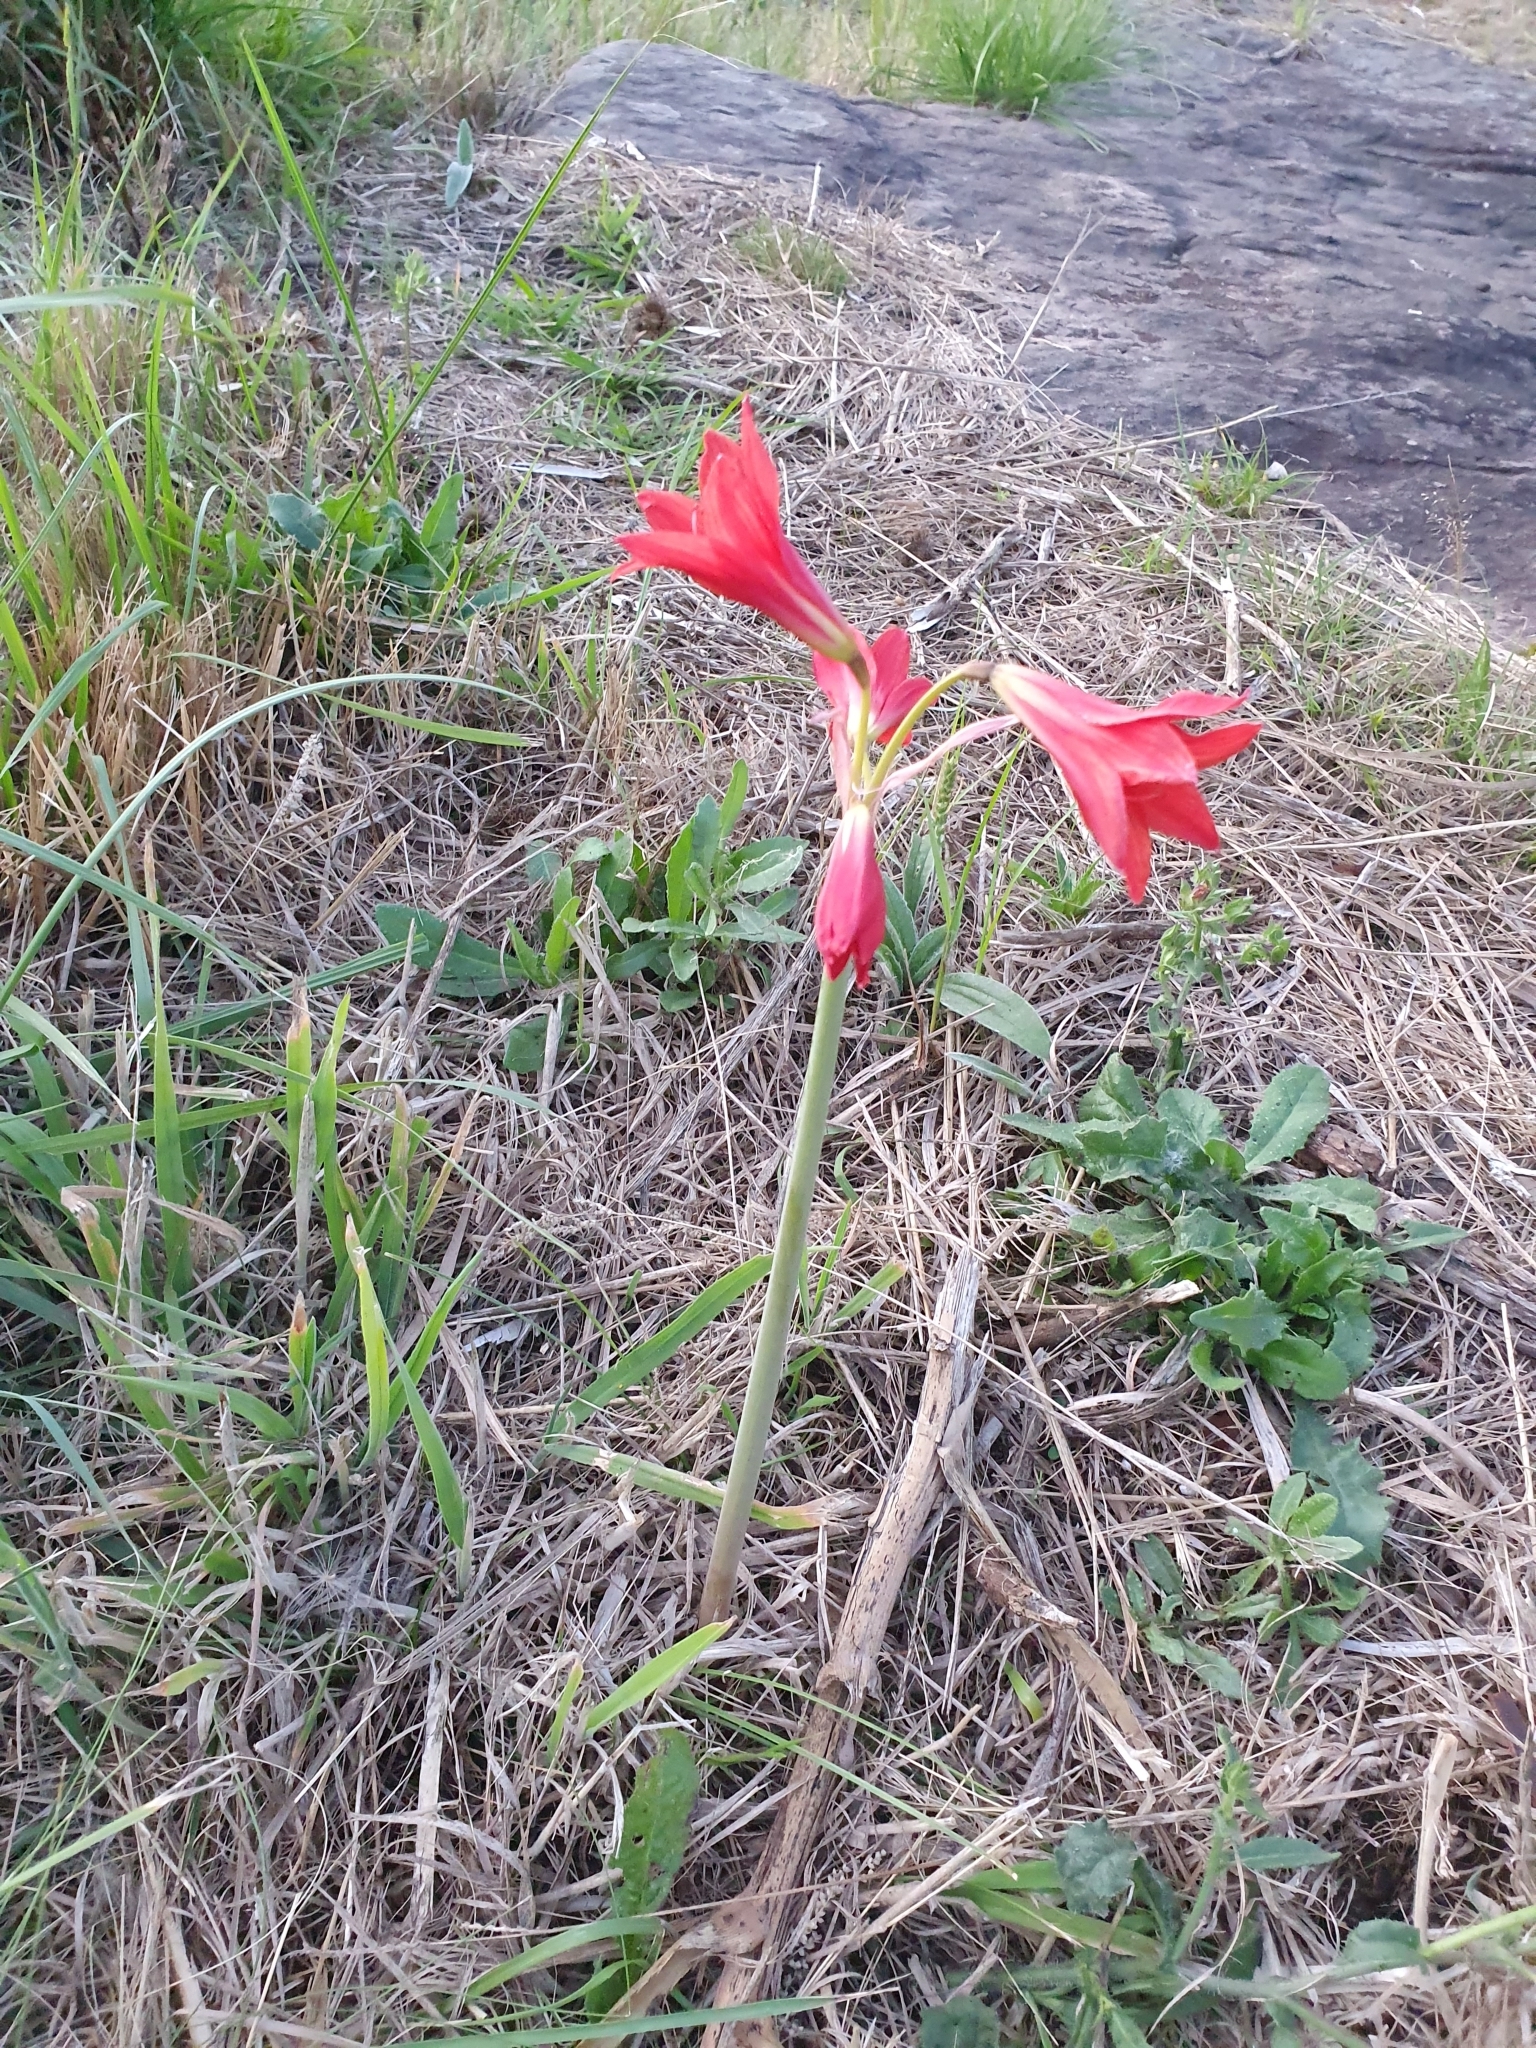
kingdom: Plantae
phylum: Tracheophyta
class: Liliopsida
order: Asparagales
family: Amaryllidaceae
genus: Zephyranthes
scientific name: Zephyranthes bifida
